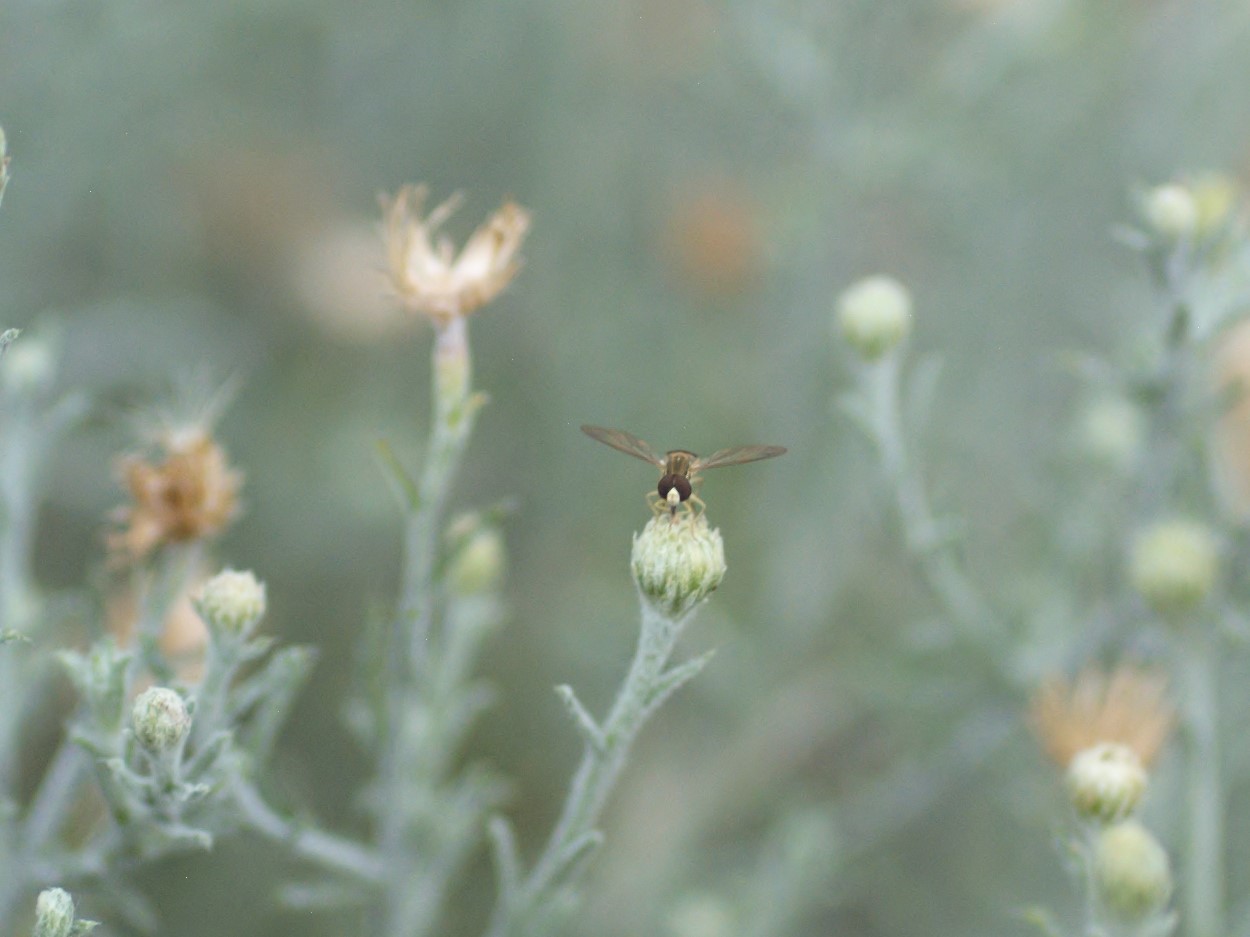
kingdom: Animalia
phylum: Arthropoda
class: Insecta
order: Diptera
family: Syrphidae
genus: Toxomerus
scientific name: Toxomerus marginatus
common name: Syrphid fly
